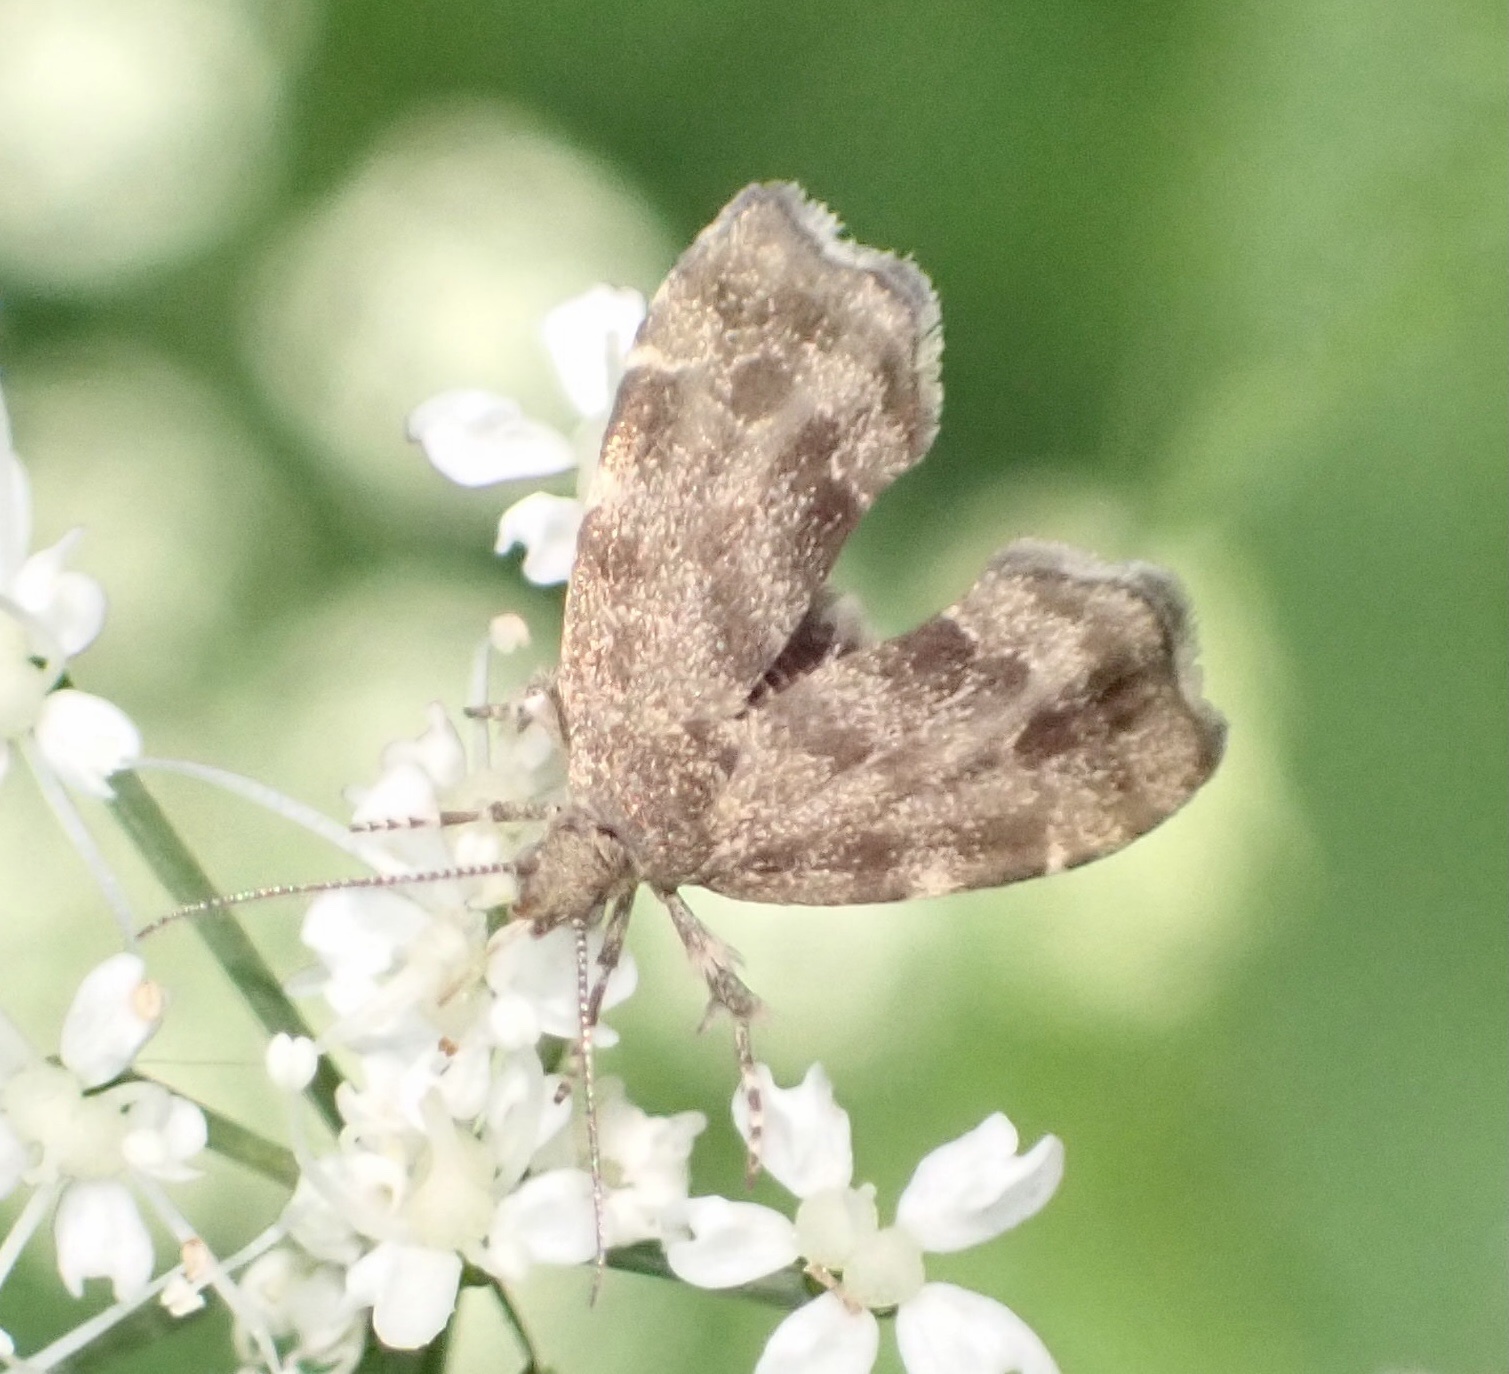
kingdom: Animalia
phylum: Arthropoda
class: Insecta
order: Lepidoptera
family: Choreutidae
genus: Anthophila
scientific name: Anthophila fabriciana
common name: Nettle-tap
